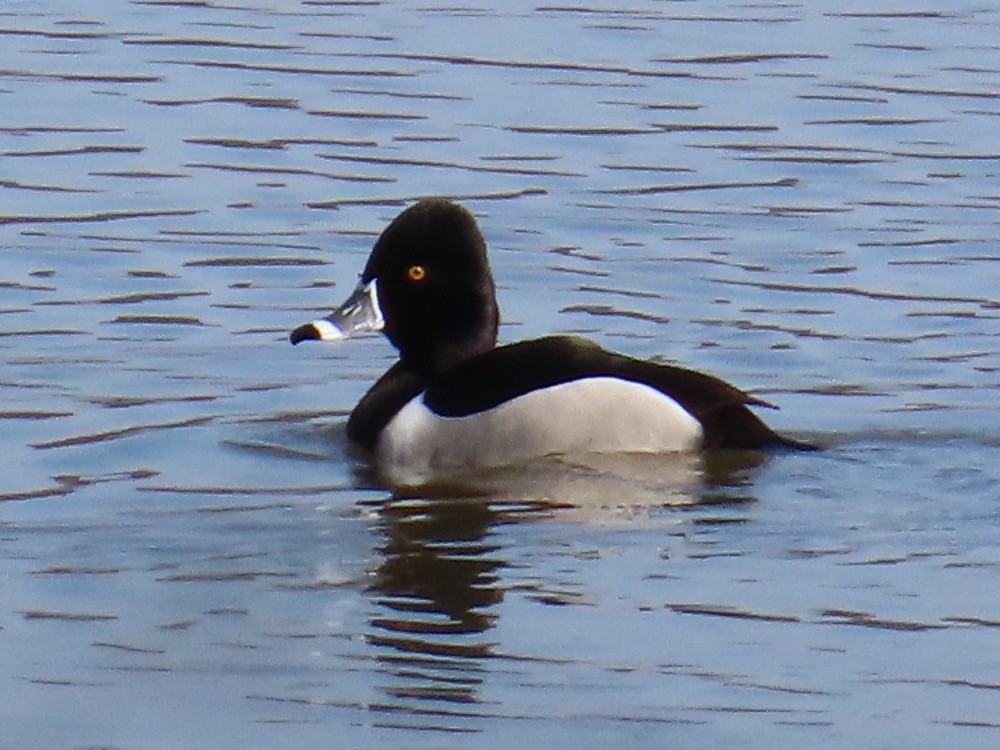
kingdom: Animalia
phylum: Chordata
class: Aves
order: Anseriformes
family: Anatidae
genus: Aythya
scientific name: Aythya collaris
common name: Ring-necked duck
